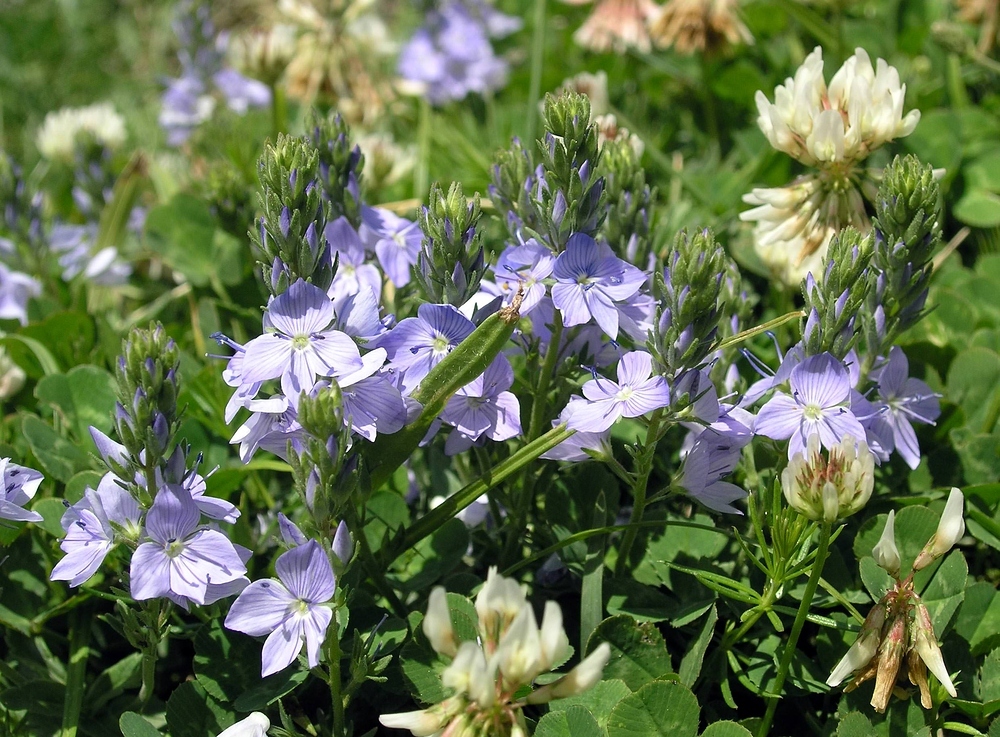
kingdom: Plantae
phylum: Tracheophyta
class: Magnoliopsida
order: Lamiales
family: Plantaginaceae
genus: Veronica
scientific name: Veronica orsiniana
